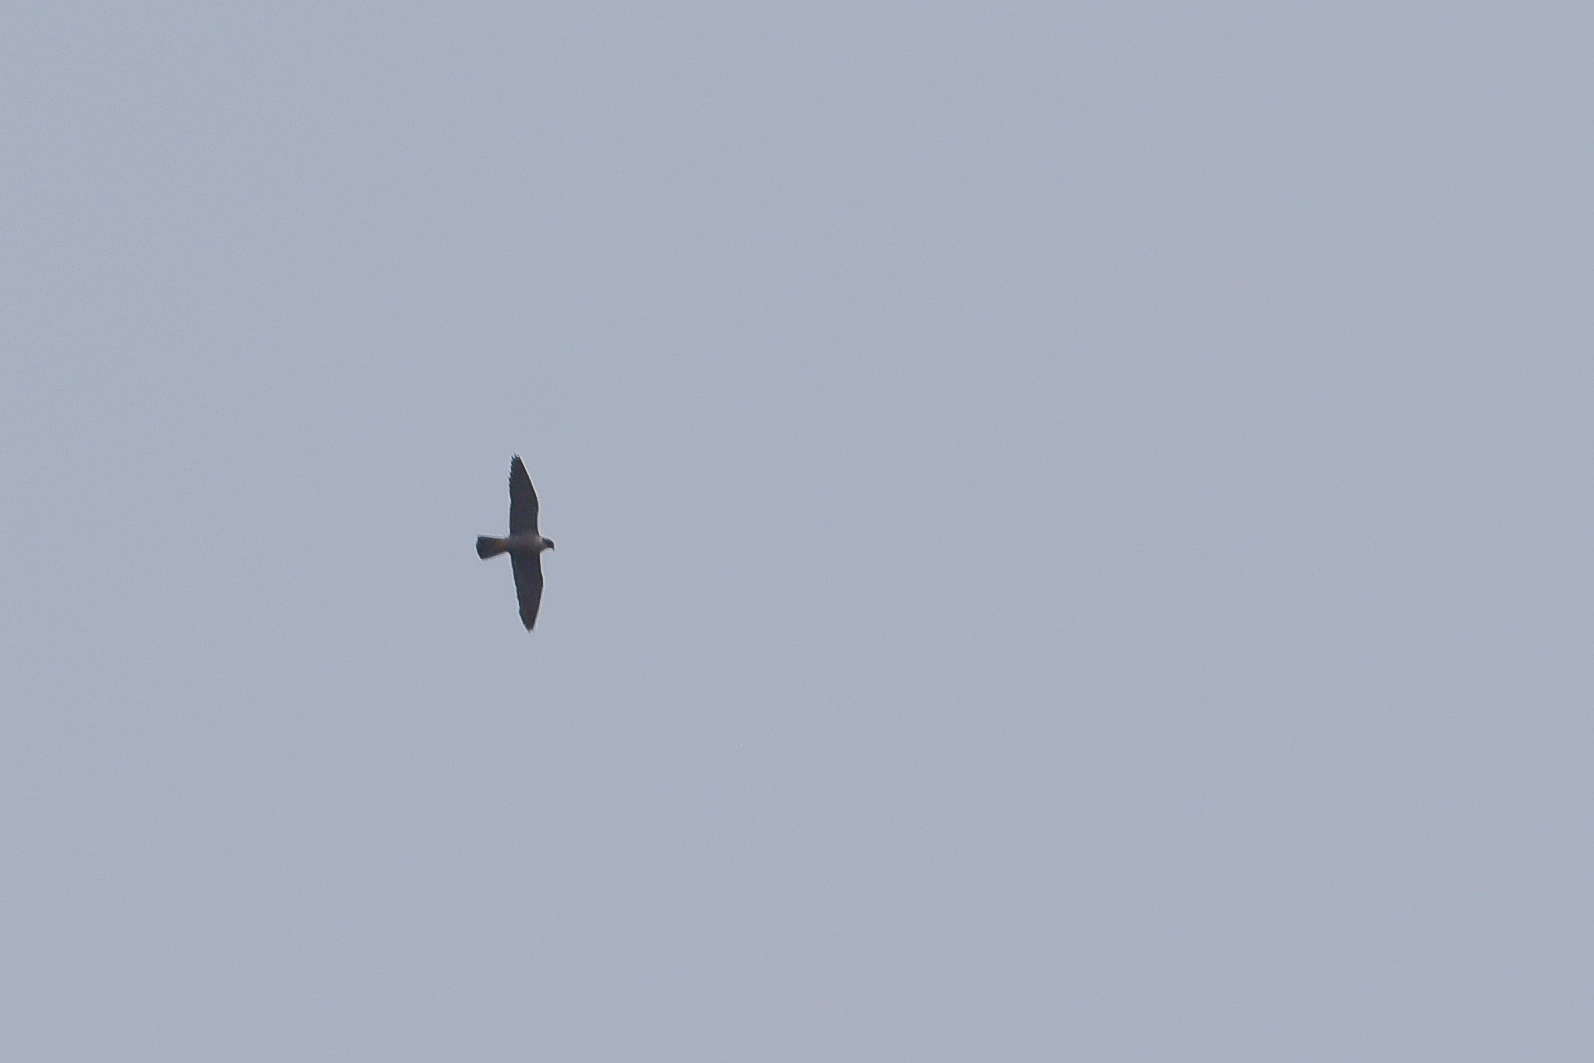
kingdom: Animalia
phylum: Chordata
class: Aves
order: Falconiformes
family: Falconidae
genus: Falco
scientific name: Falco peregrinus
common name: Peregrine falcon
